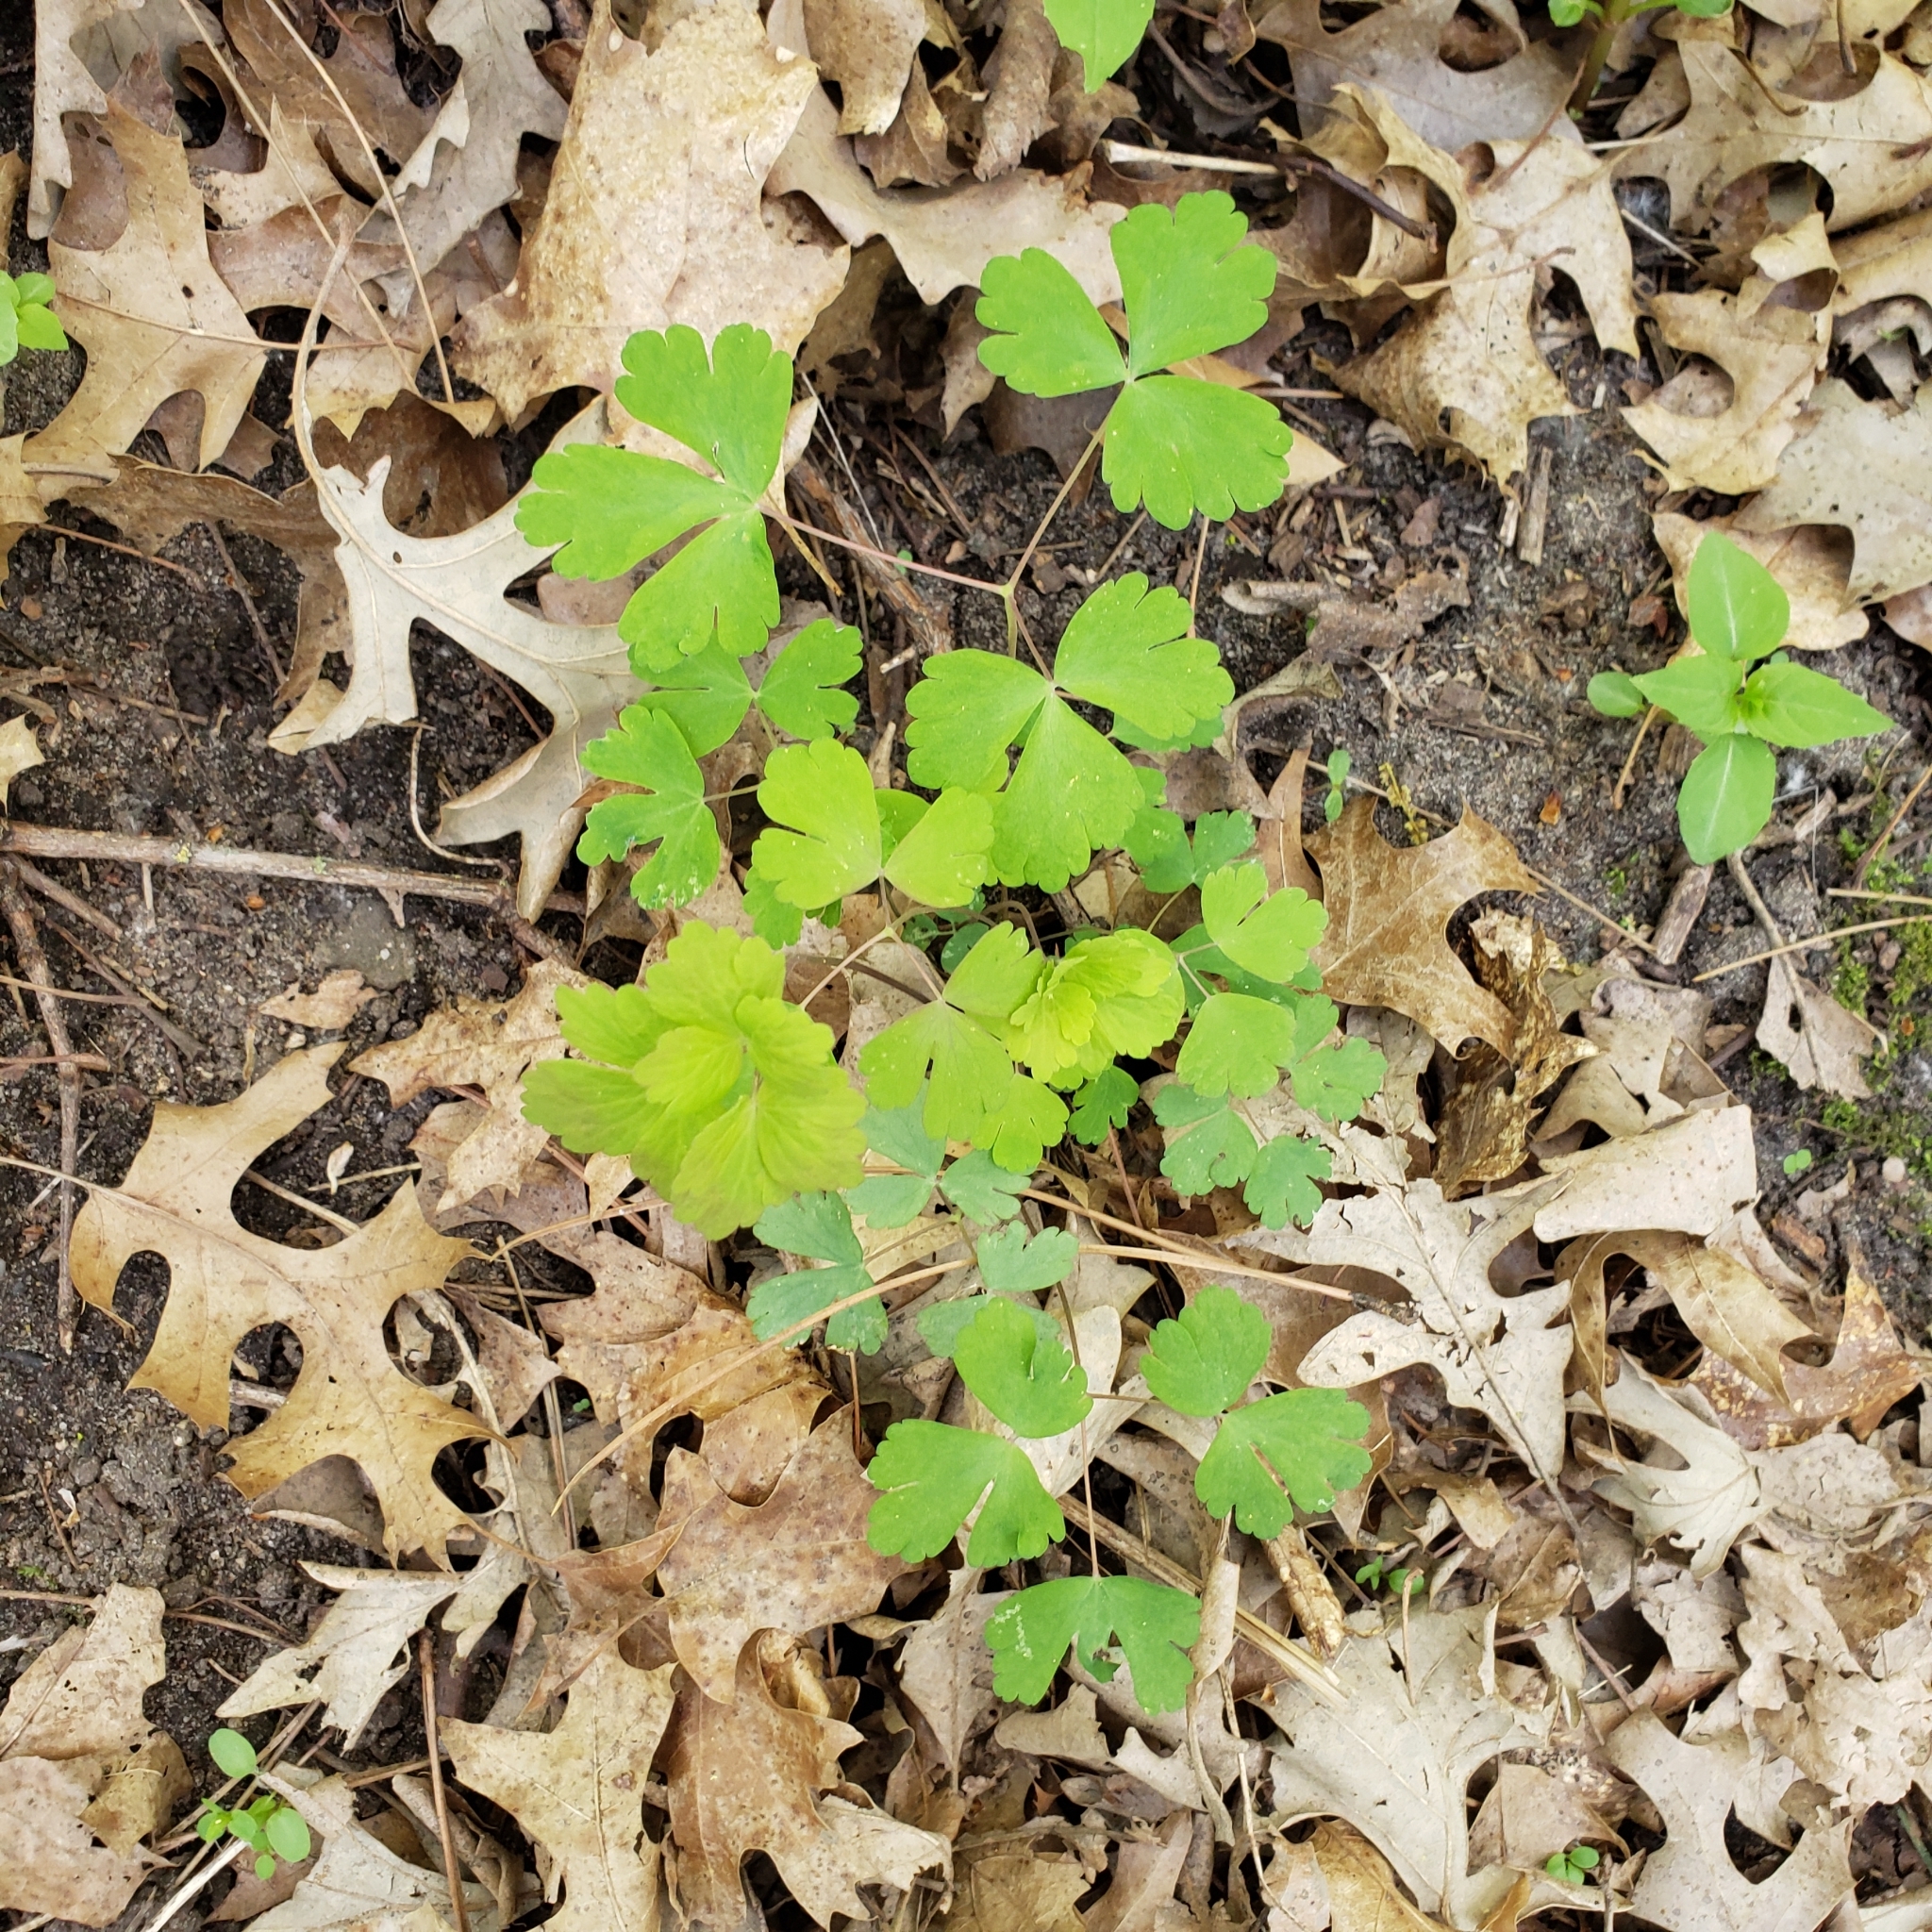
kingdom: Plantae
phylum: Tracheophyta
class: Magnoliopsida
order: Ranunculales
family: Ranunculaceae
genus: Aquilegia
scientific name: Aquilegia canadensis
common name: American columbine
